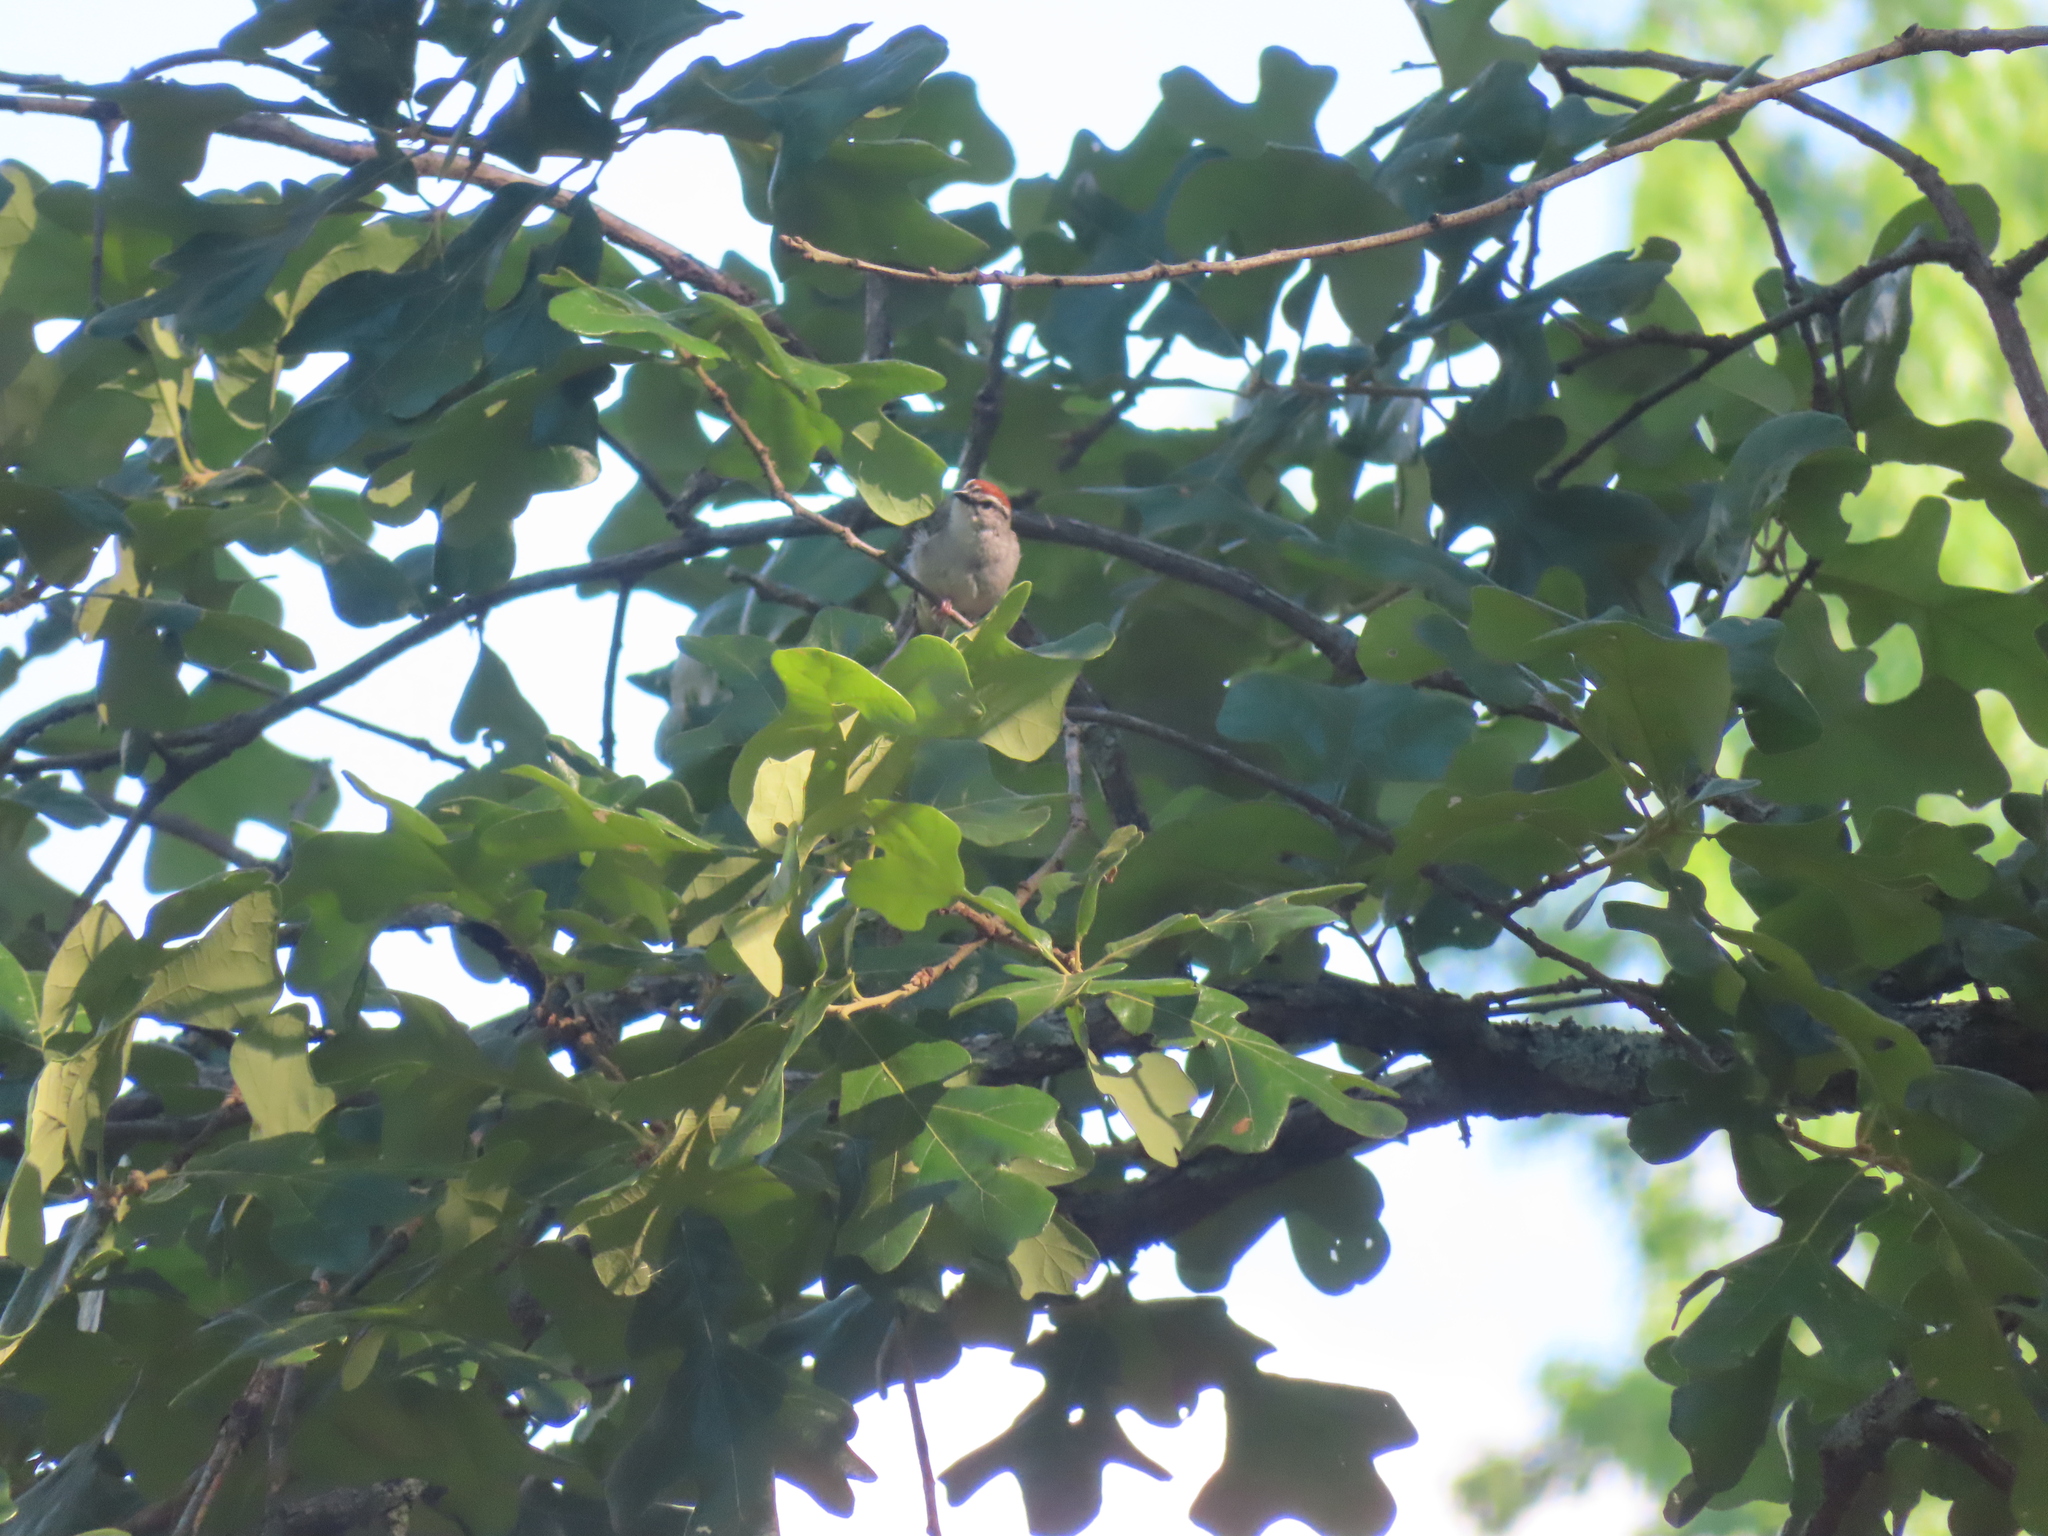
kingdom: Animalia
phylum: Chordata
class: Aves
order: Passeriformes
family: Passerellidae
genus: Spizella
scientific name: Spizella passerina
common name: Chipping sparrow
